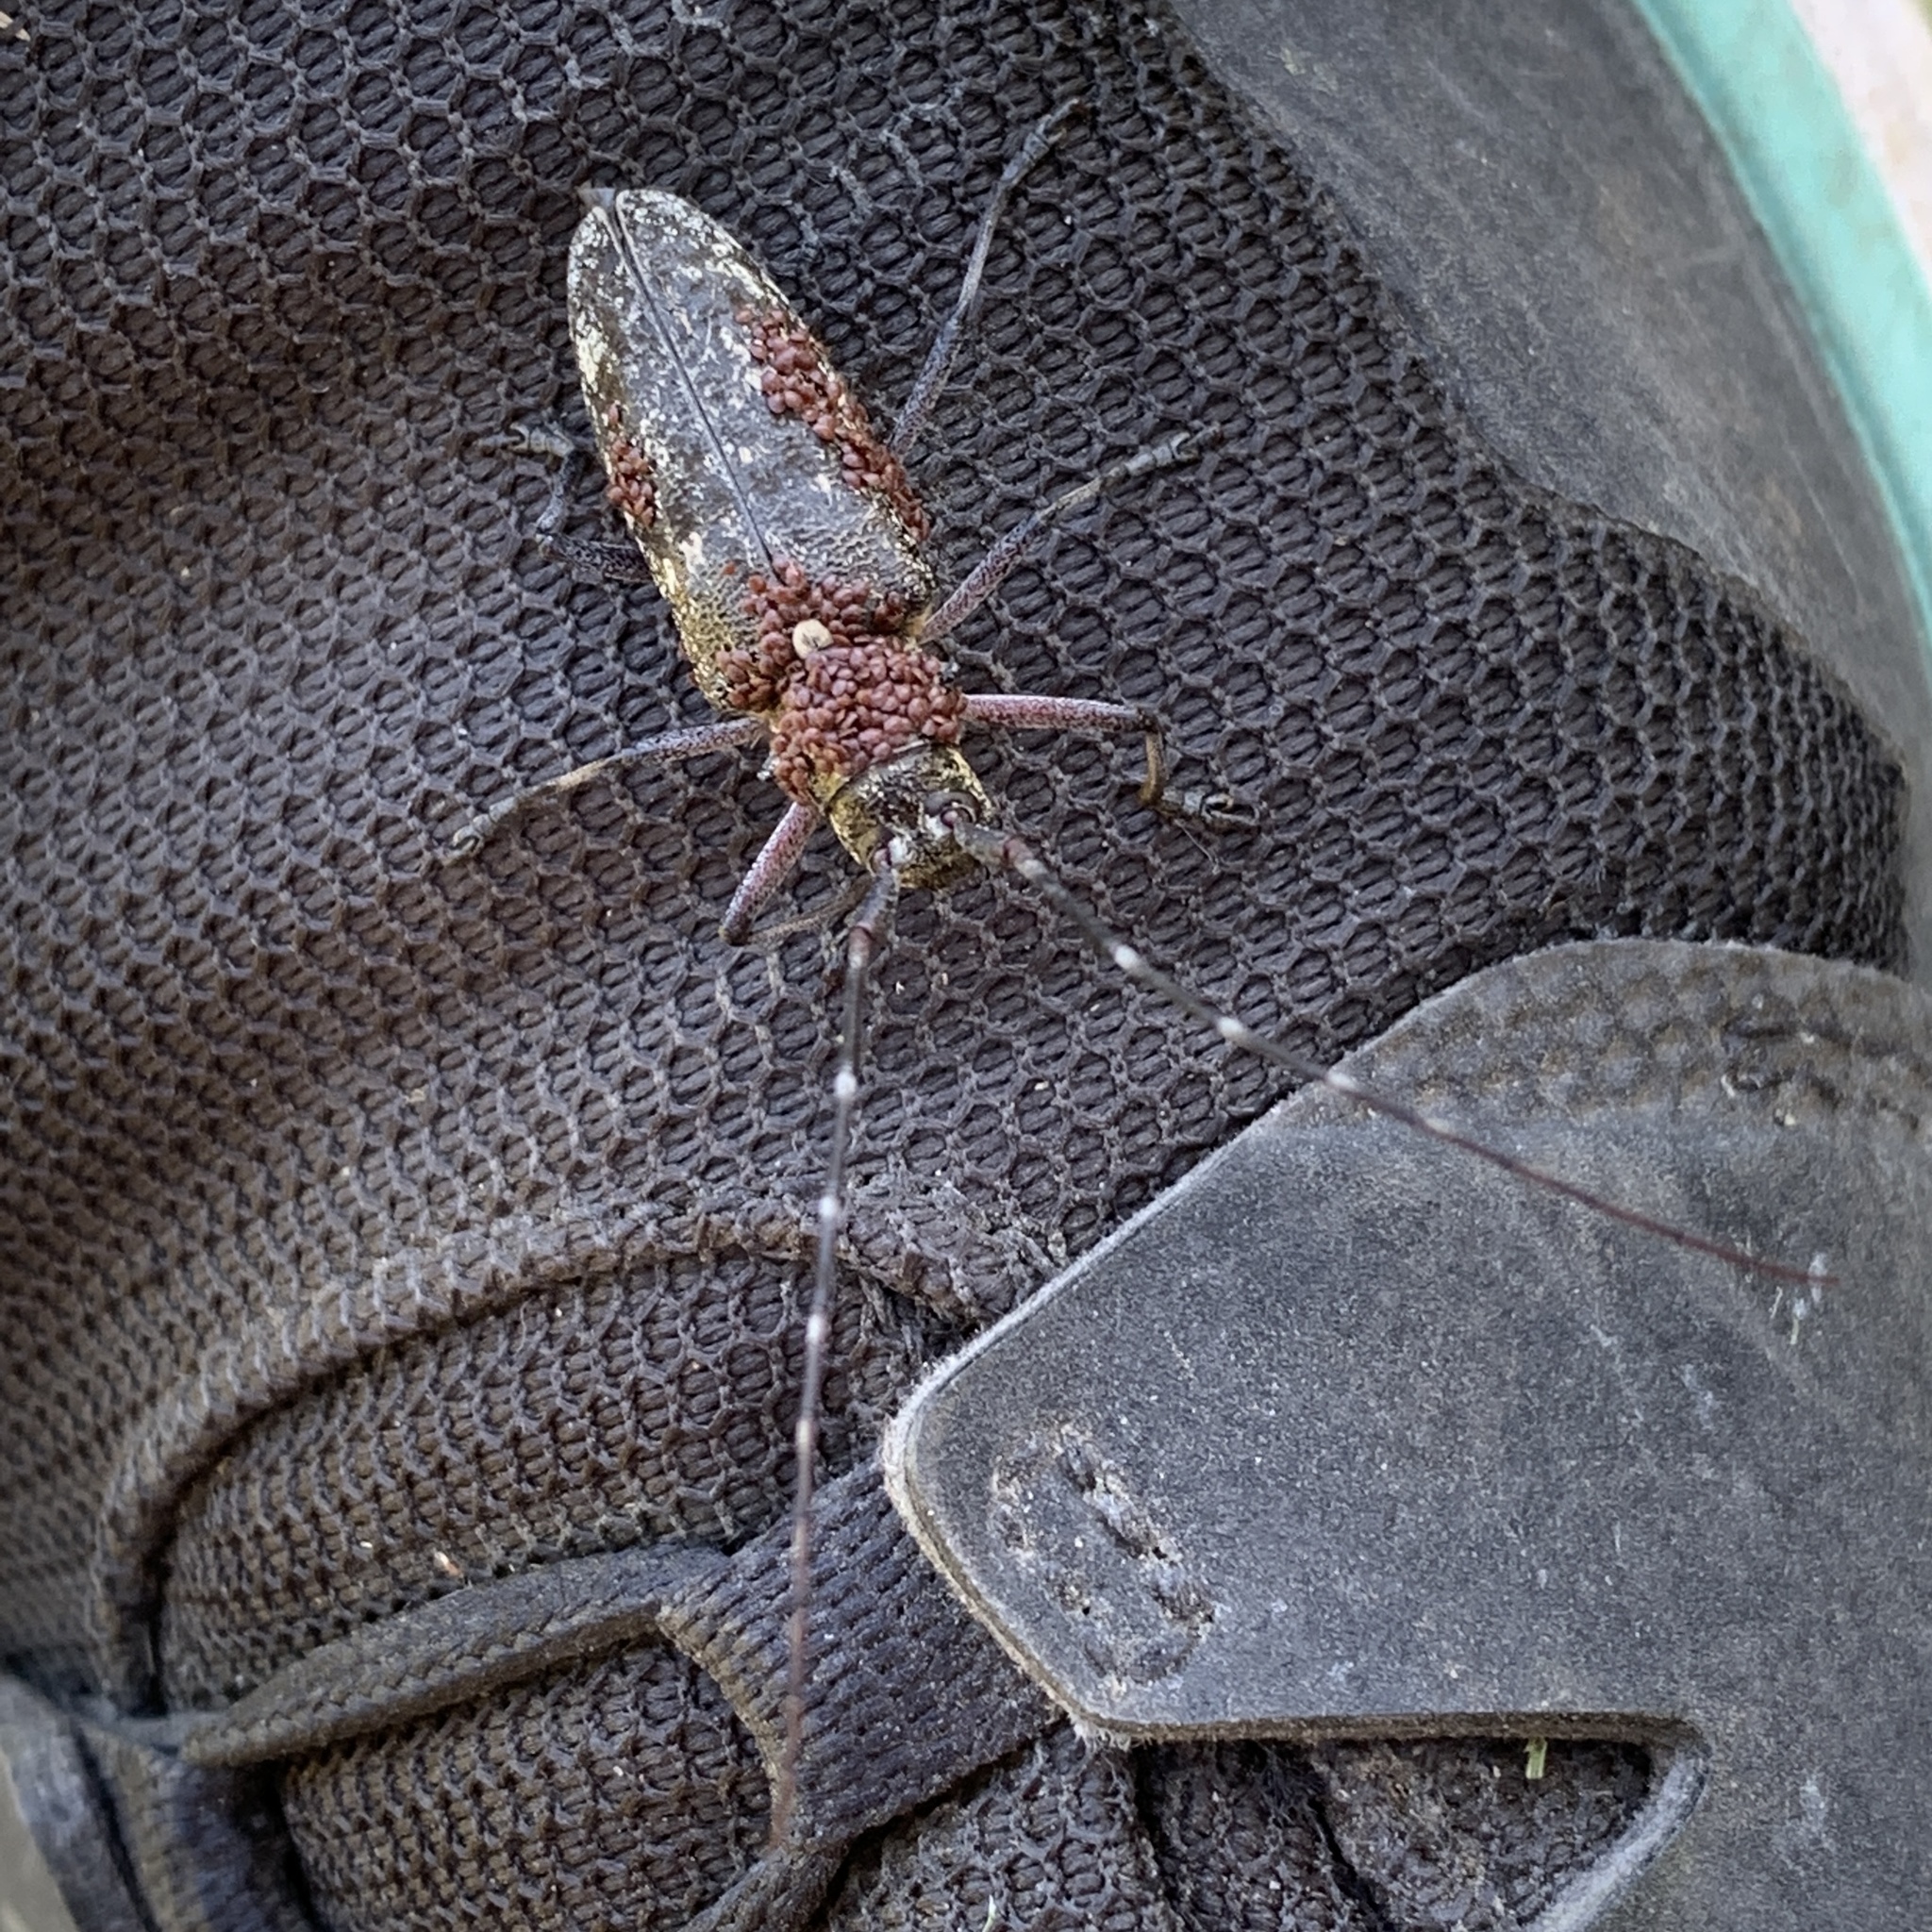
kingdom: Animalia
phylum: Arthropoda
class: Insecta
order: Coleoptera
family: Cerambycidae
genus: Monochamus
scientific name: Monochamus scutellatus
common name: White-spotted sawyer beetle
